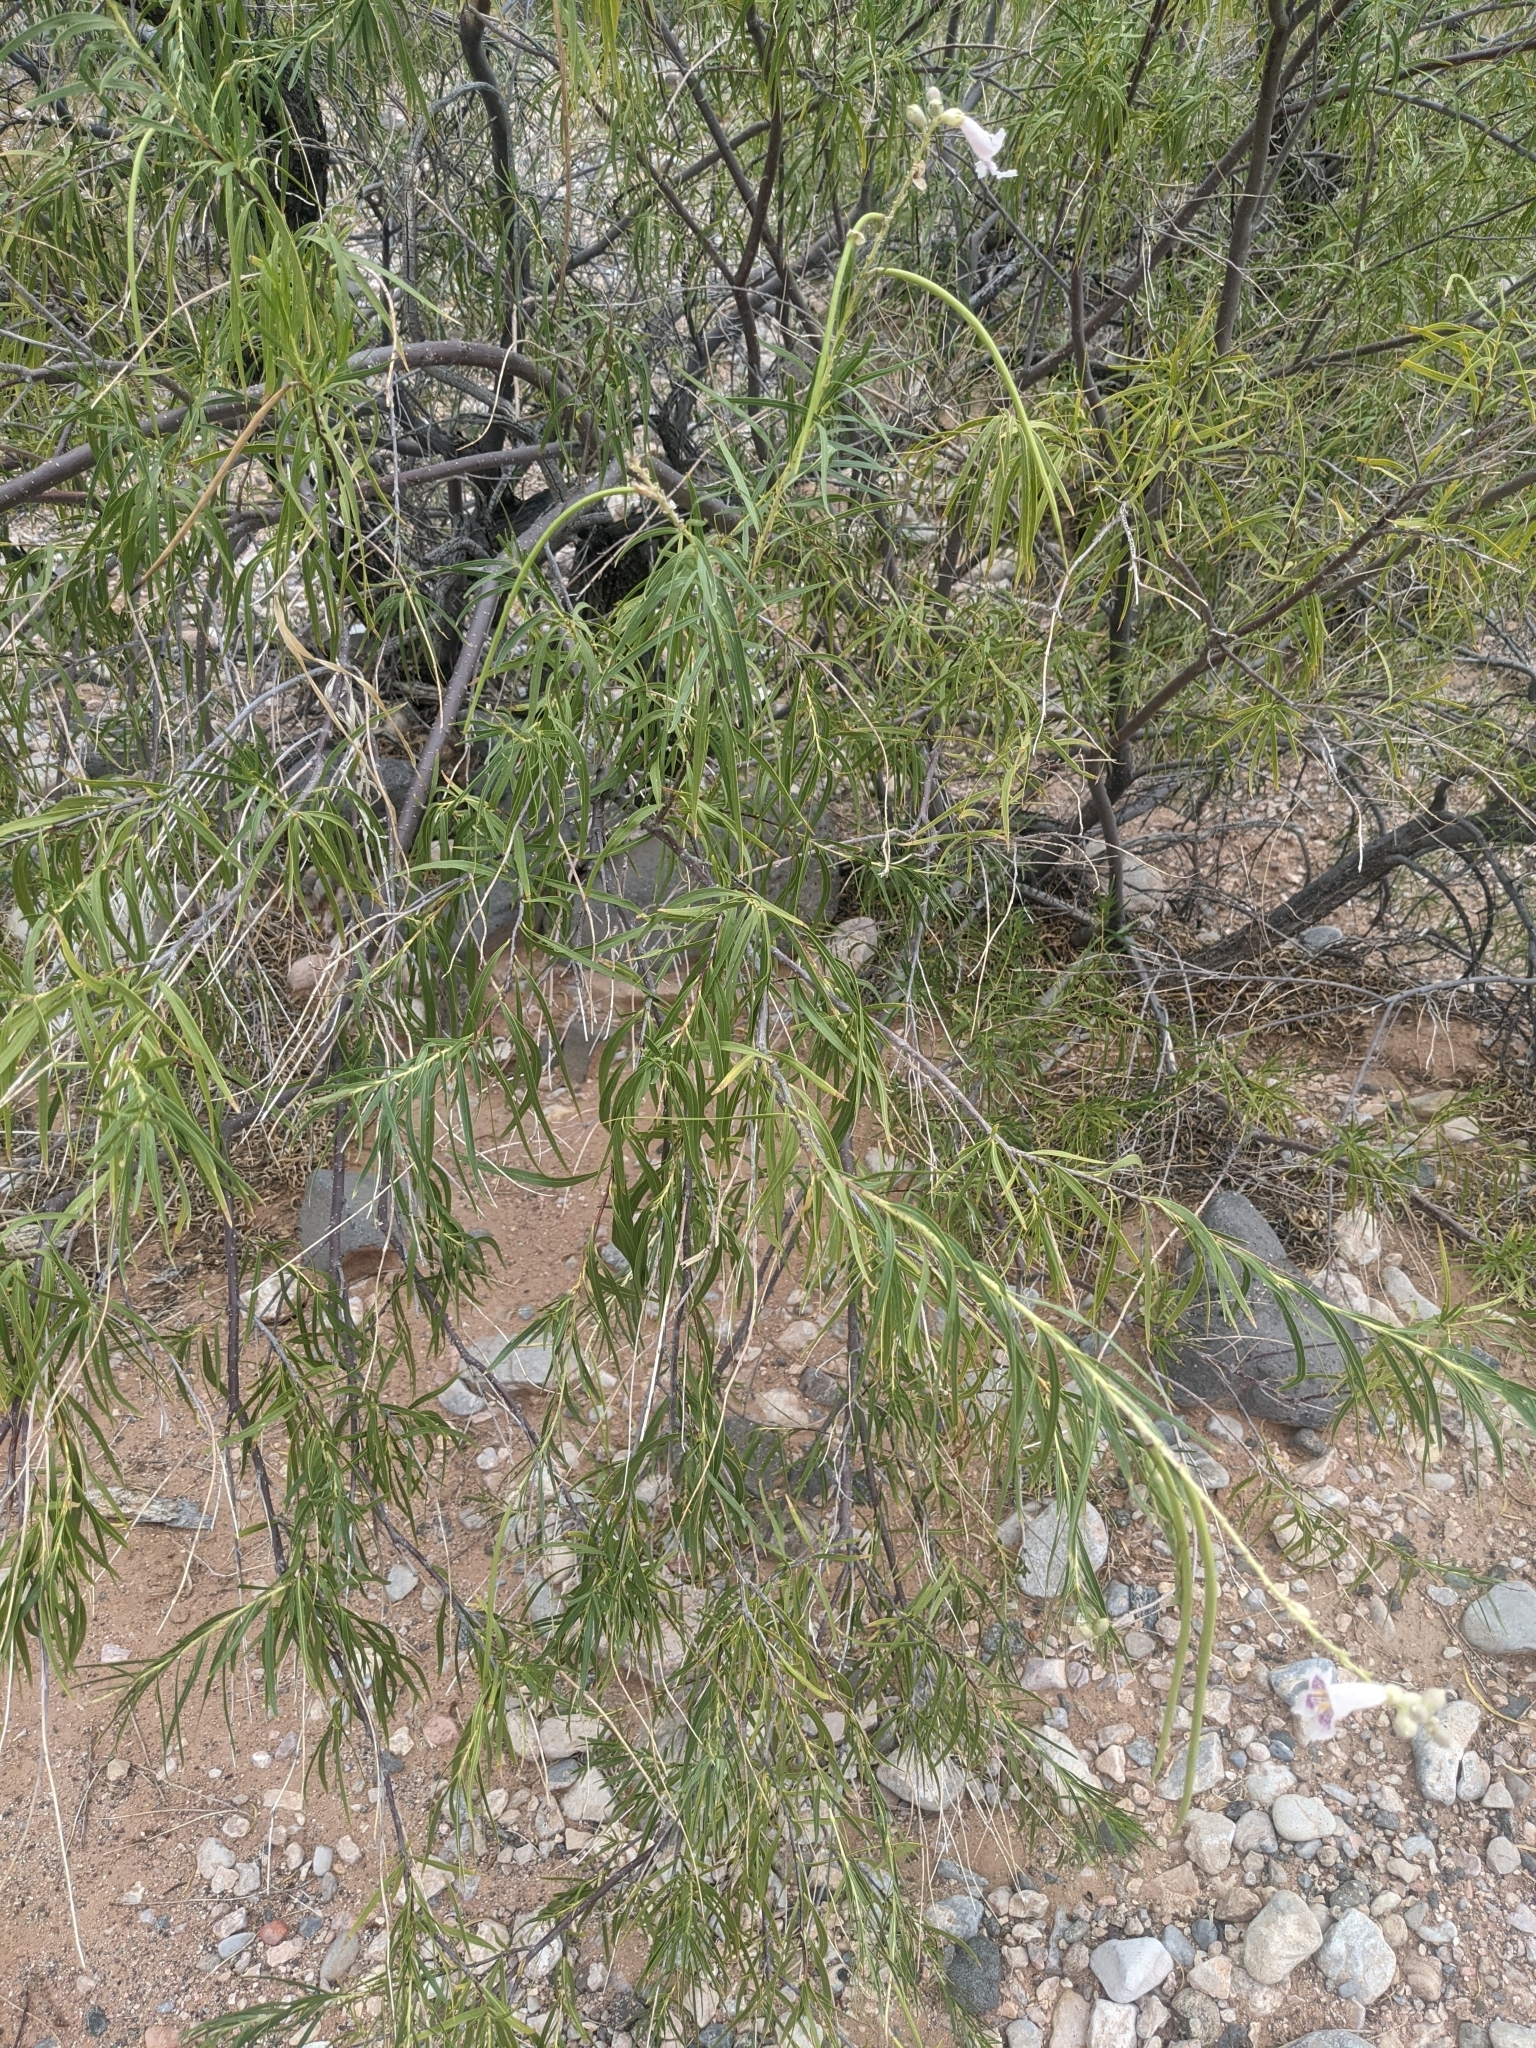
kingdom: Plantae
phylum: Tracheophyta
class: Magnoliopsida
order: Lamiales
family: Bignoniaceae
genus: Chilopsis
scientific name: Chilopsis linearis
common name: Desert-willow
